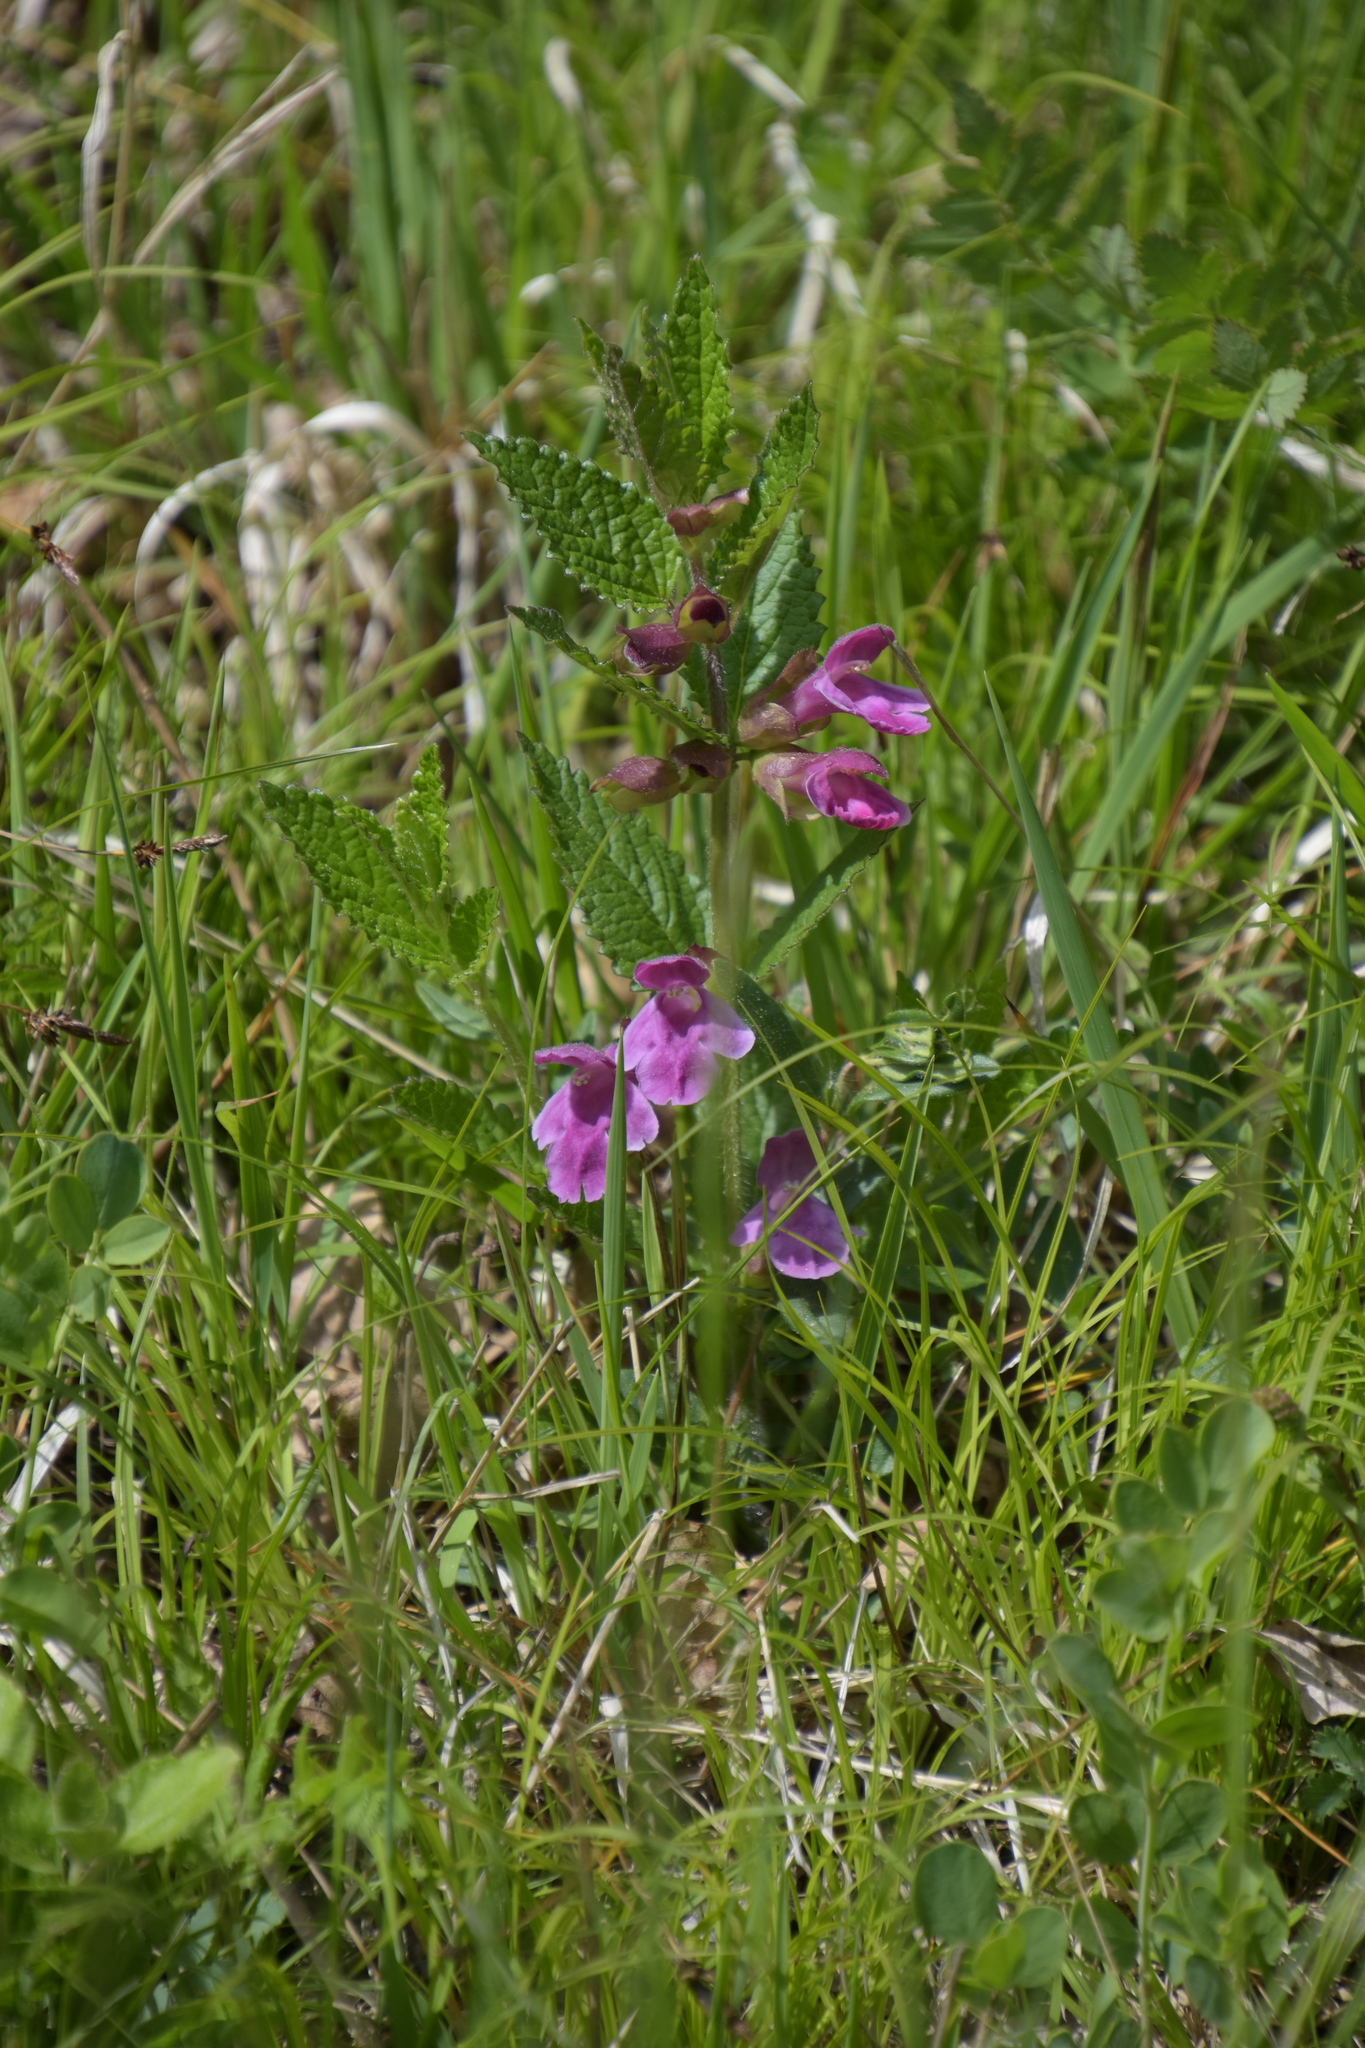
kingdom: Plantae
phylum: Tracheophyta
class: Magnoliopsida
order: Lamiales
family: Lamiaceae
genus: Melittis
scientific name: Melittis melissophyllum
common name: Bastard balm
